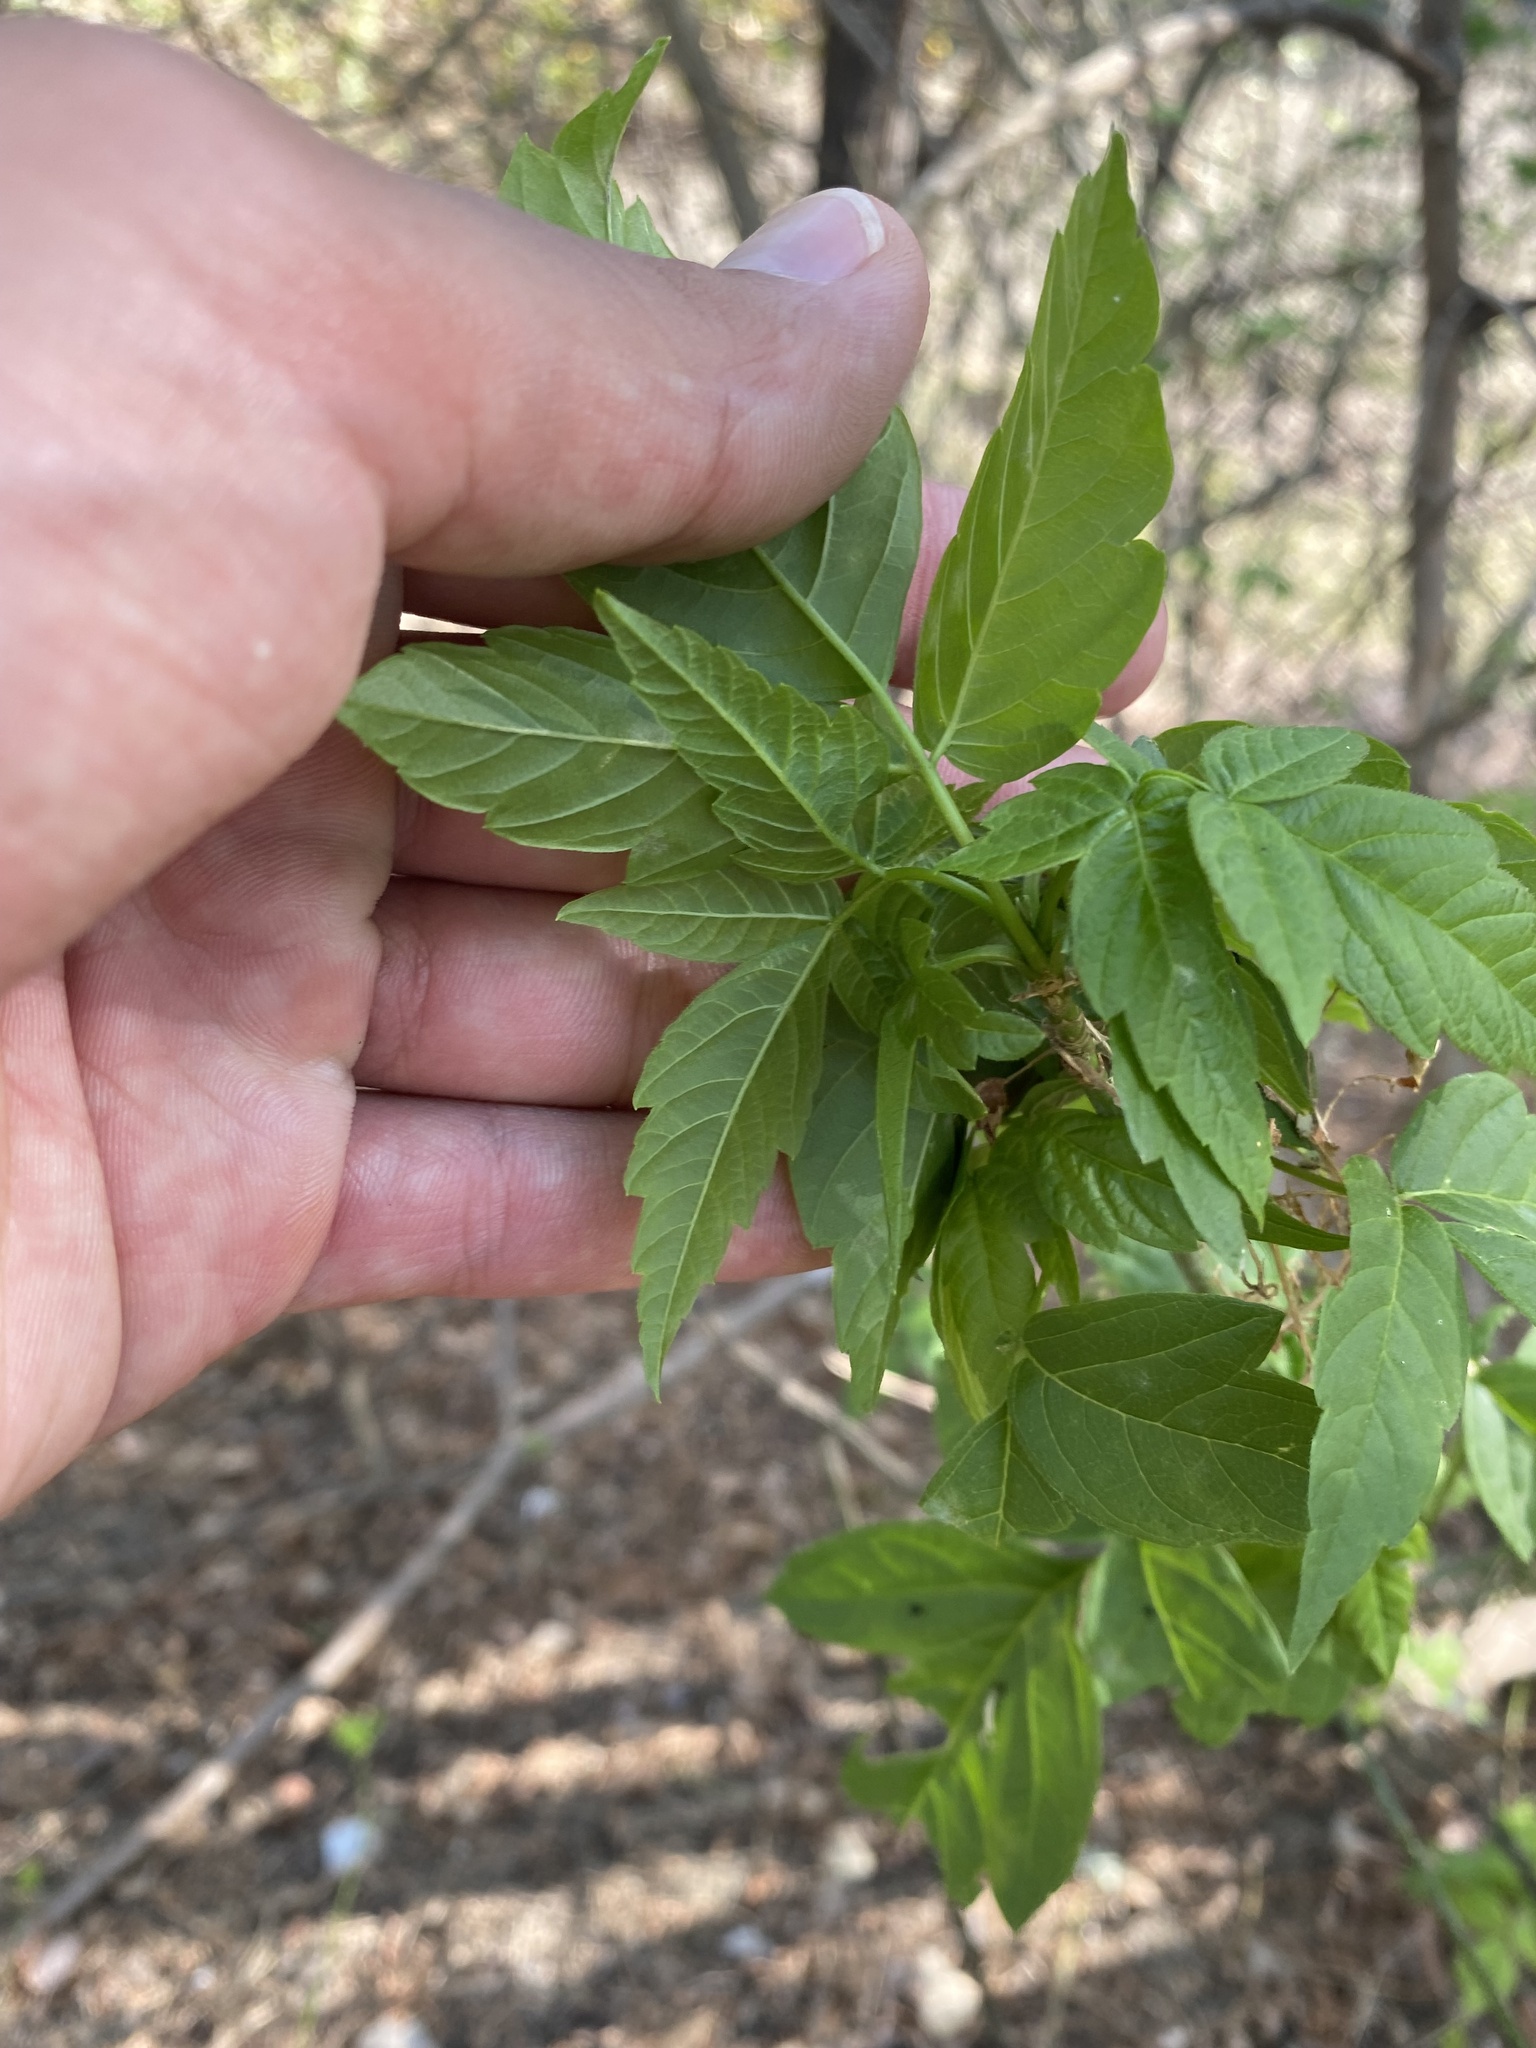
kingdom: Plantae
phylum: Tracheophyta
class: Magnoliopsida
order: Sapindales
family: Sapindaceae
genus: Acer
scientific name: Acer negundo
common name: Ashleaf maple
